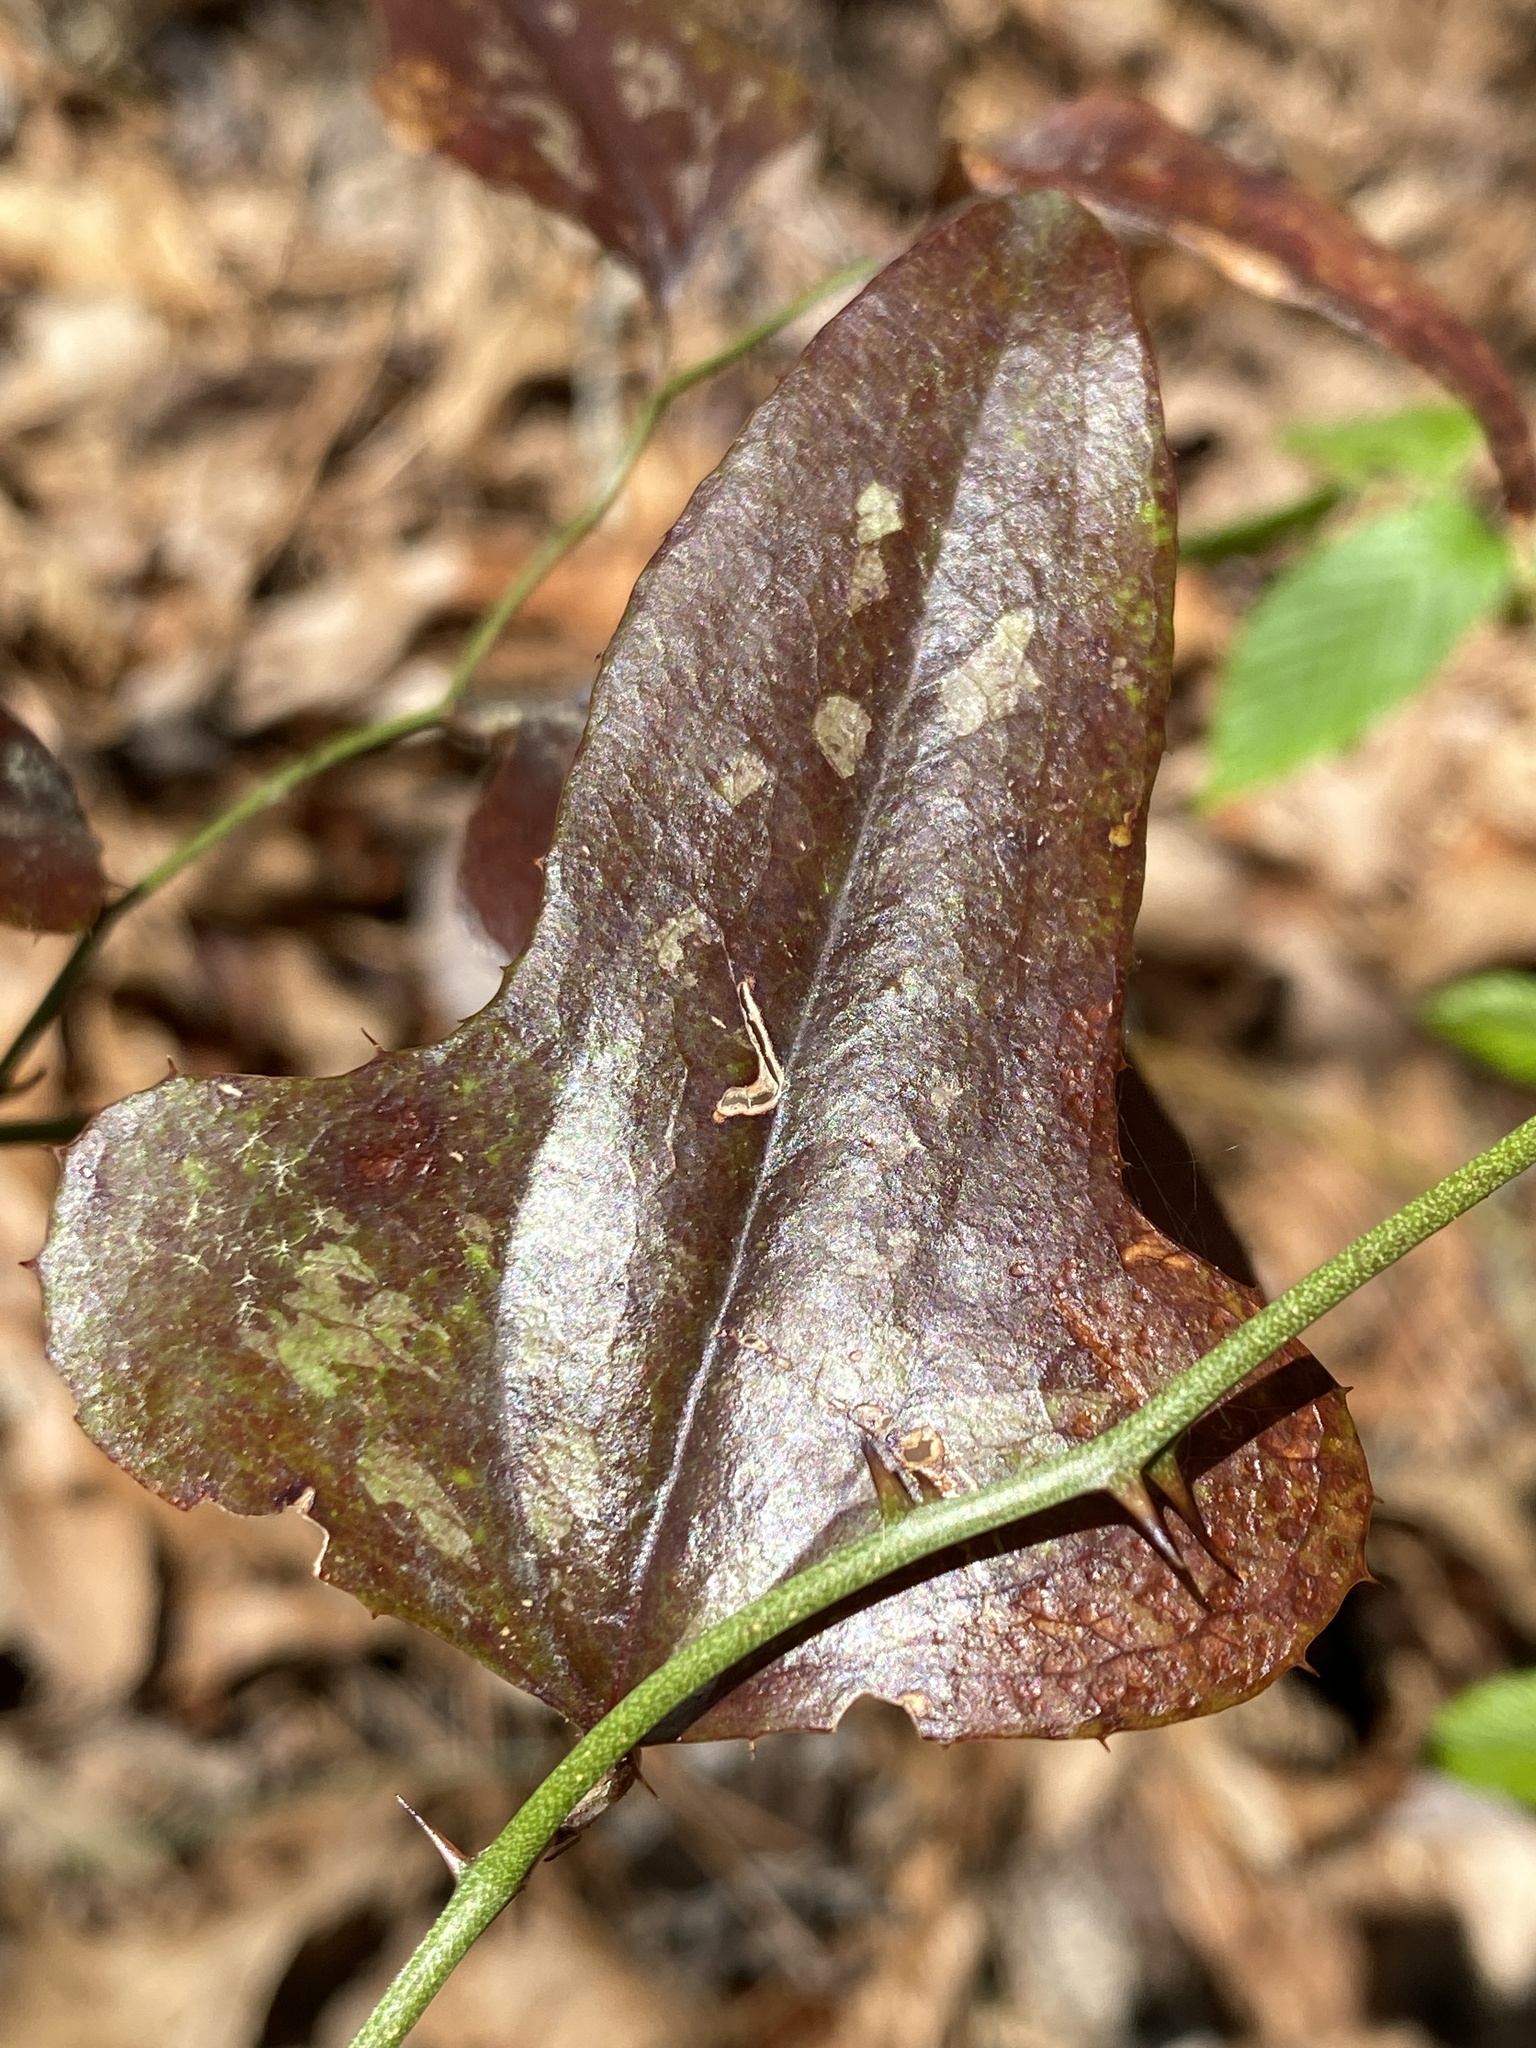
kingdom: Plantae
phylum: Tracheophyta
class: Liliopsida
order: Liliales
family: Smilacaceae
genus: Smilax
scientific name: Smilax bona-nox
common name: Catbrier
